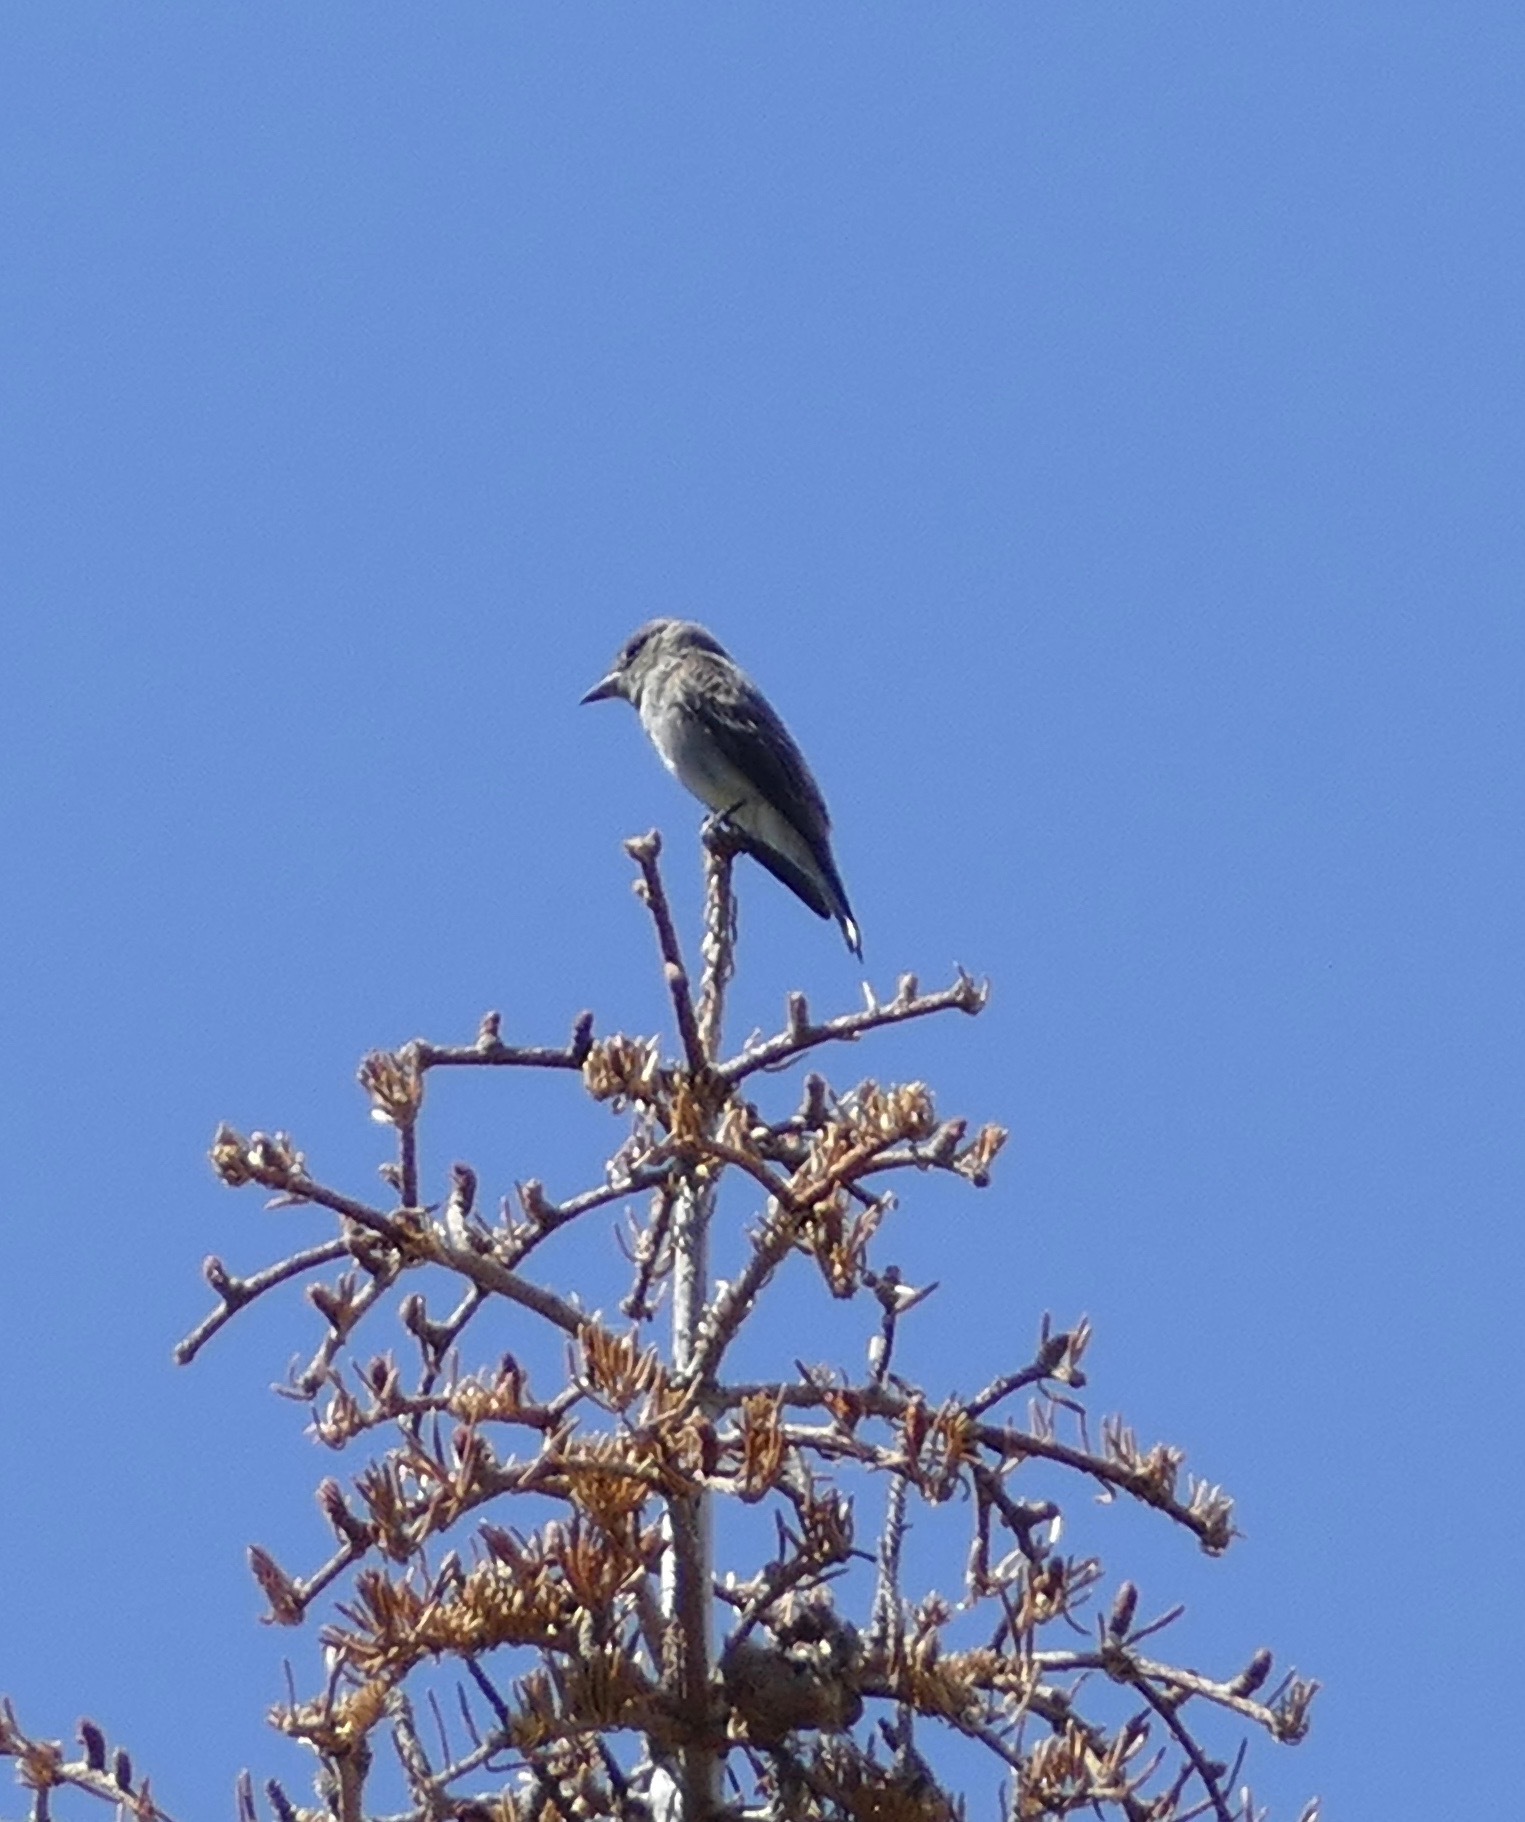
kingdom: Animalia
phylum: Chordata
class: Aves
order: Passeriformes
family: Tyrannidae
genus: Contopus
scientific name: Contopus cooperi
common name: Olive-sided flycatcher
